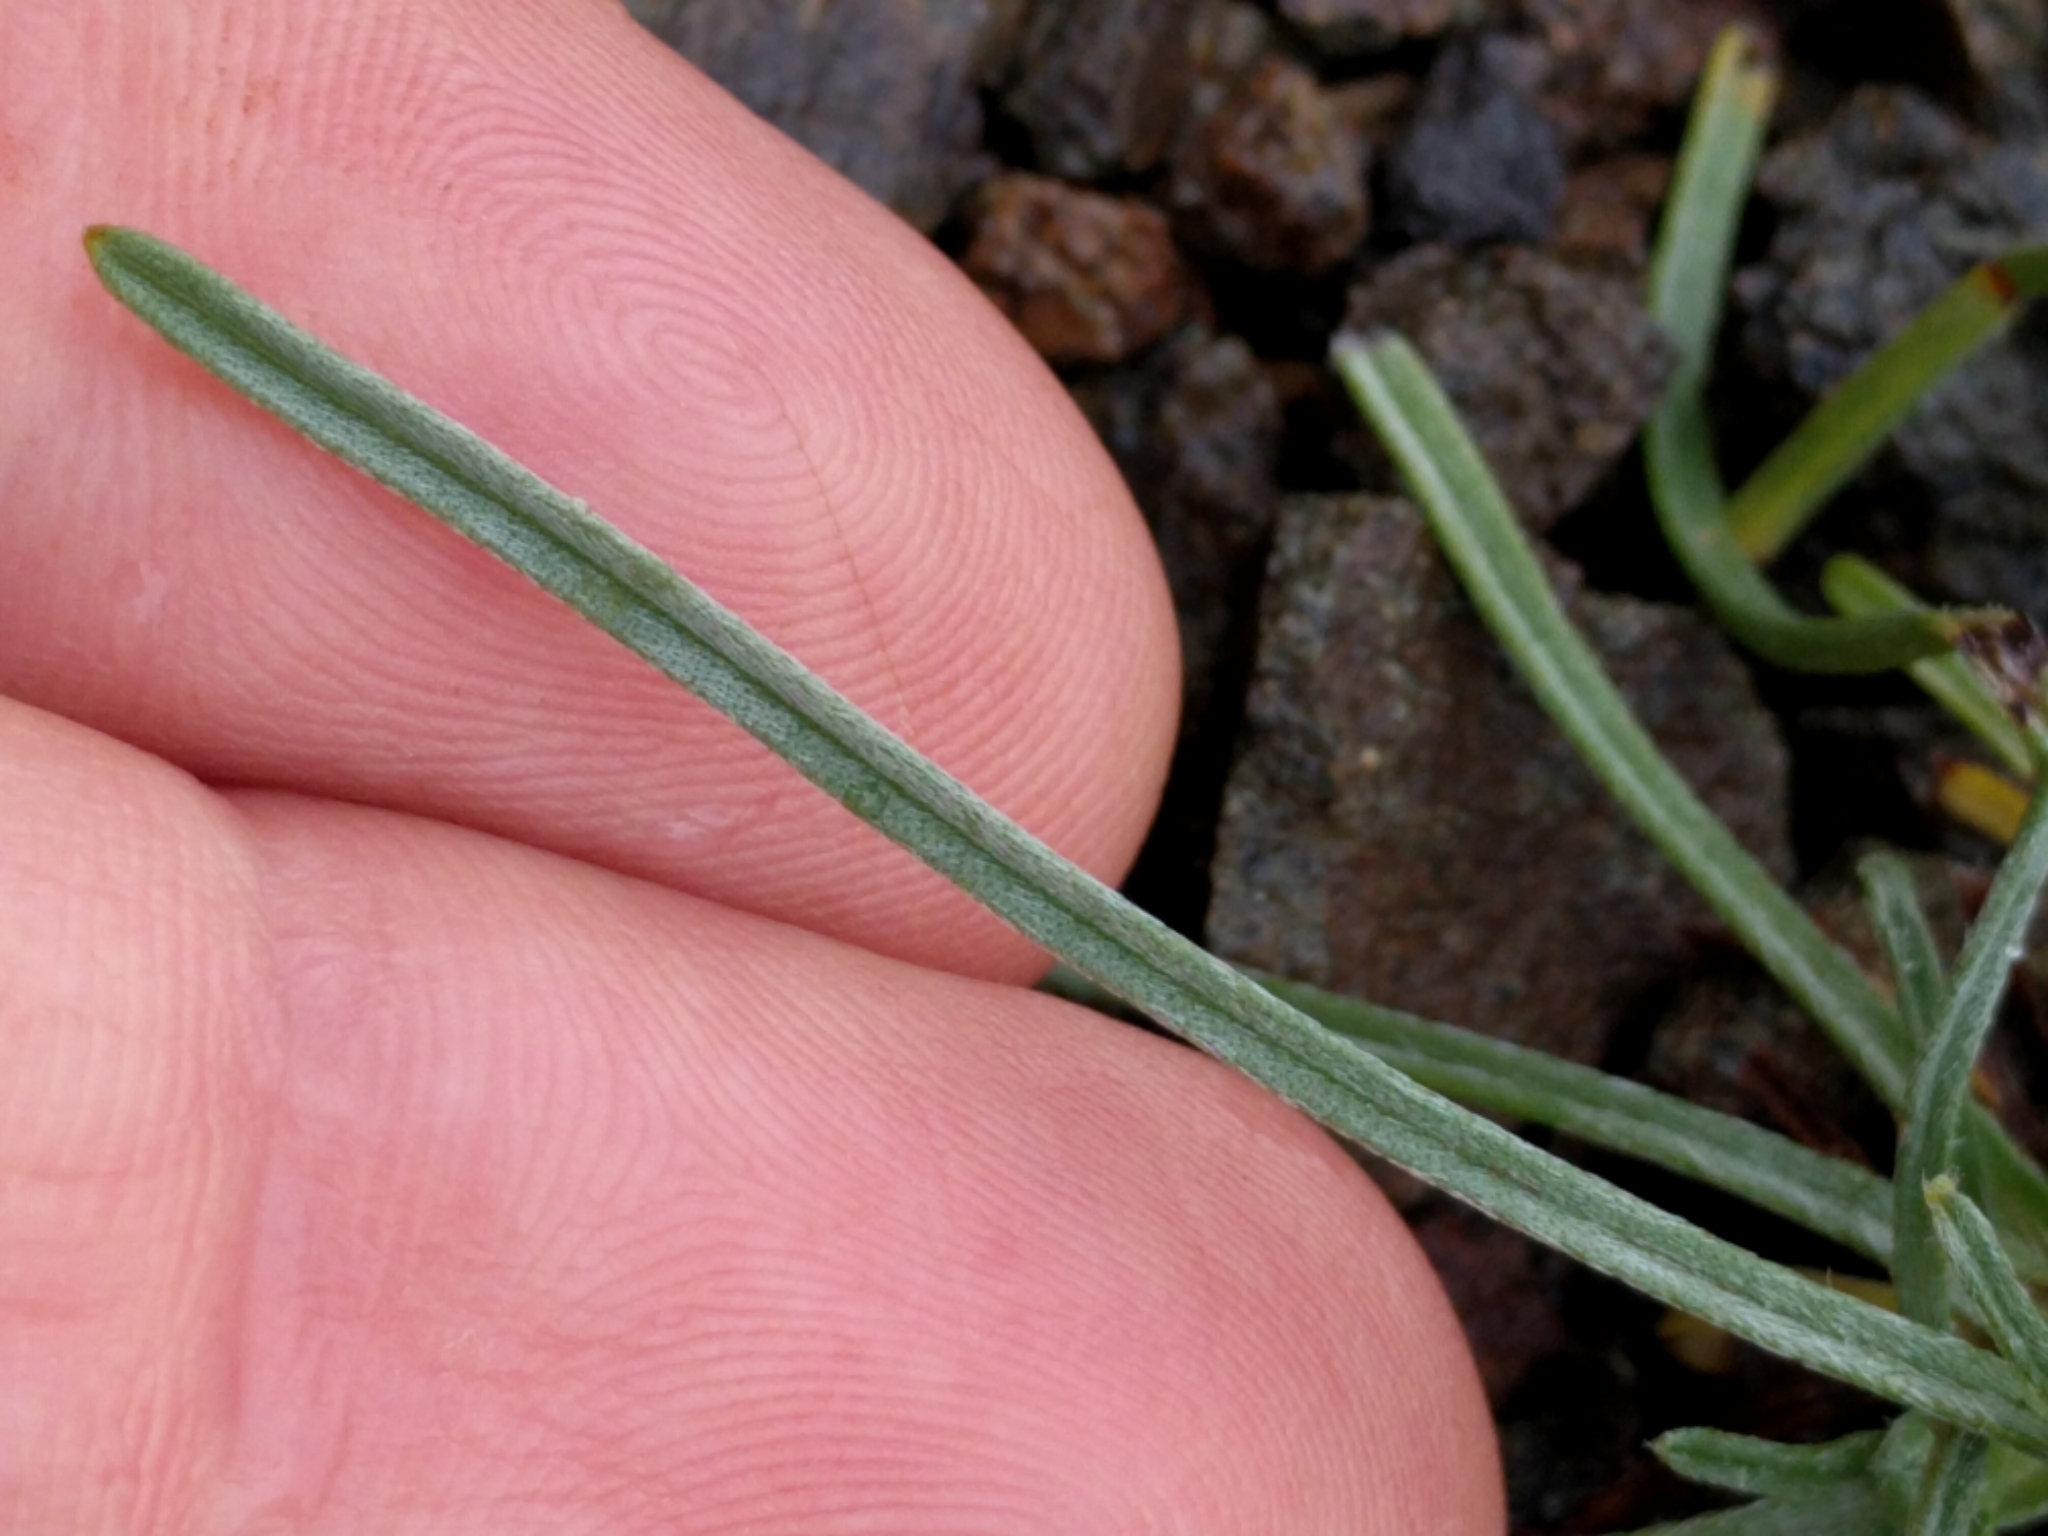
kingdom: Plantae
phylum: Tracheophyta
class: Magnoliopsida
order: Boraginales
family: Boraginaceae
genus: Cryptantha
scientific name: Cryptantha flaccida
